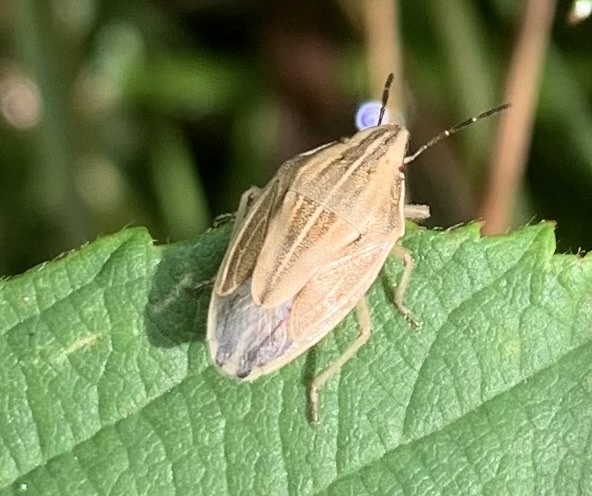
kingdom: Animalia
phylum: Arthropoda
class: Insecta
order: Hemiptera
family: Pentatomidae
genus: Aelia
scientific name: Aelia acuminata
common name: Bishop's mitre
